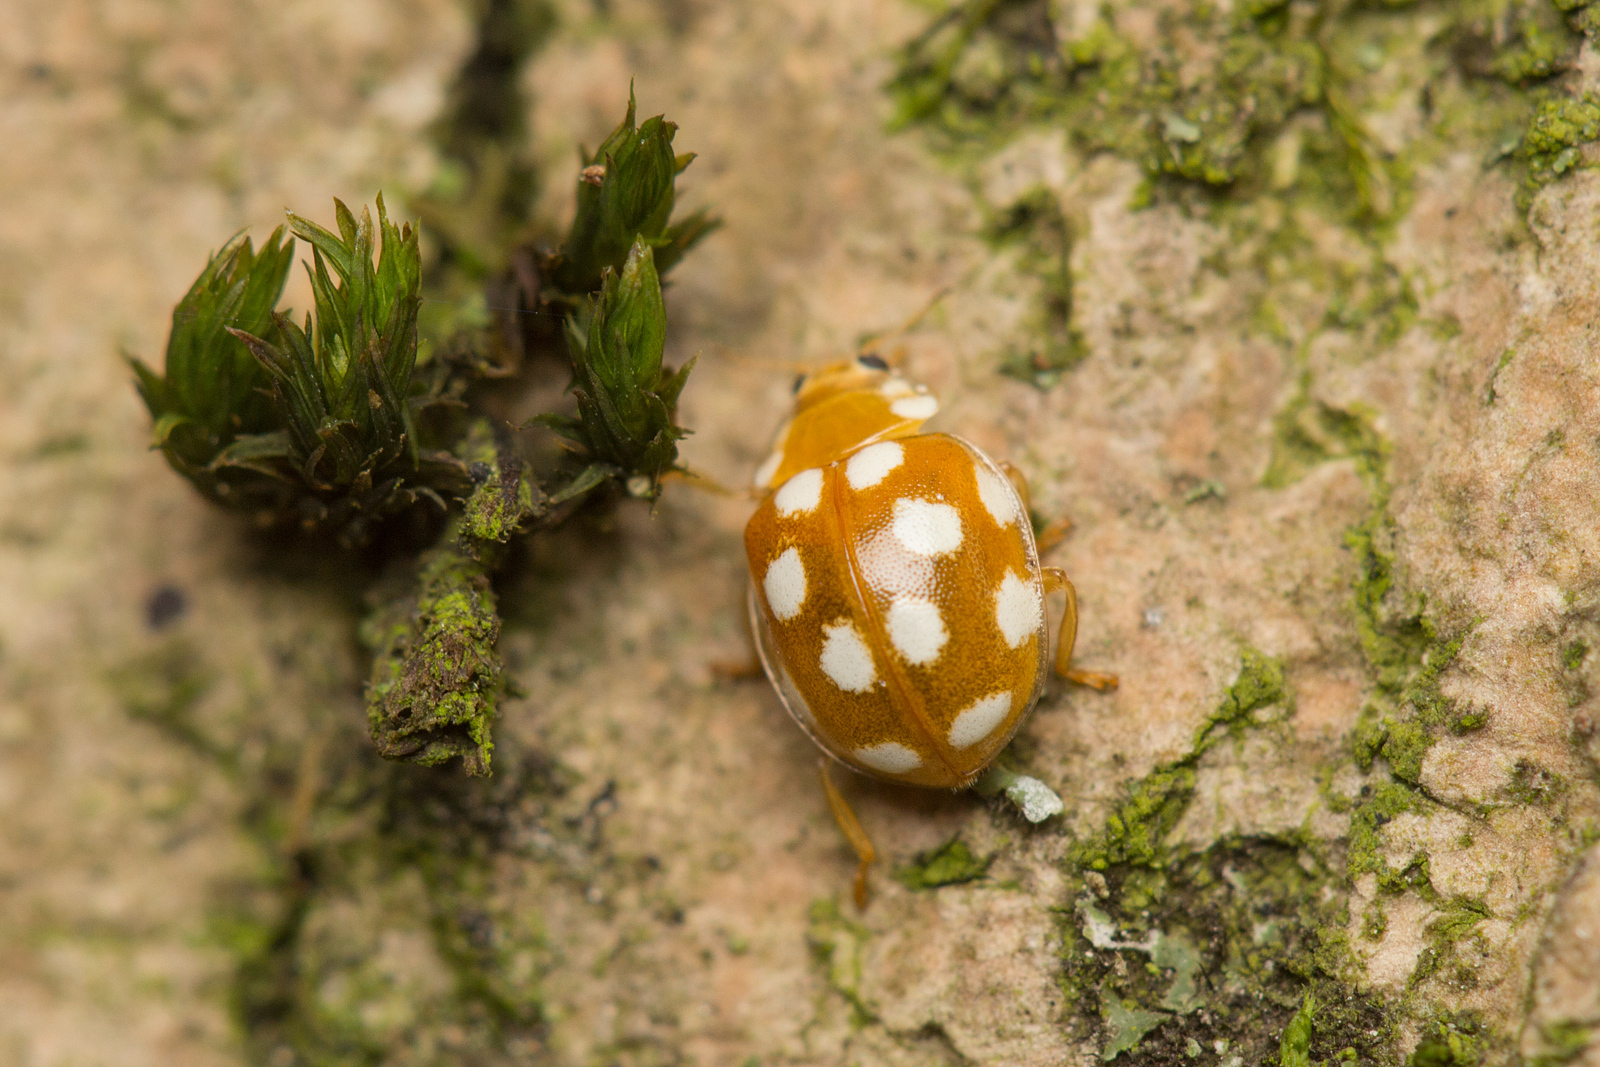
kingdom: Animalia
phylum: Arthropoda
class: Insecta
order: Coleoptera
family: Coccinellidae
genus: Vibidia
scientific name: Vibidia duodecimguttata
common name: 12-spot ladybird
